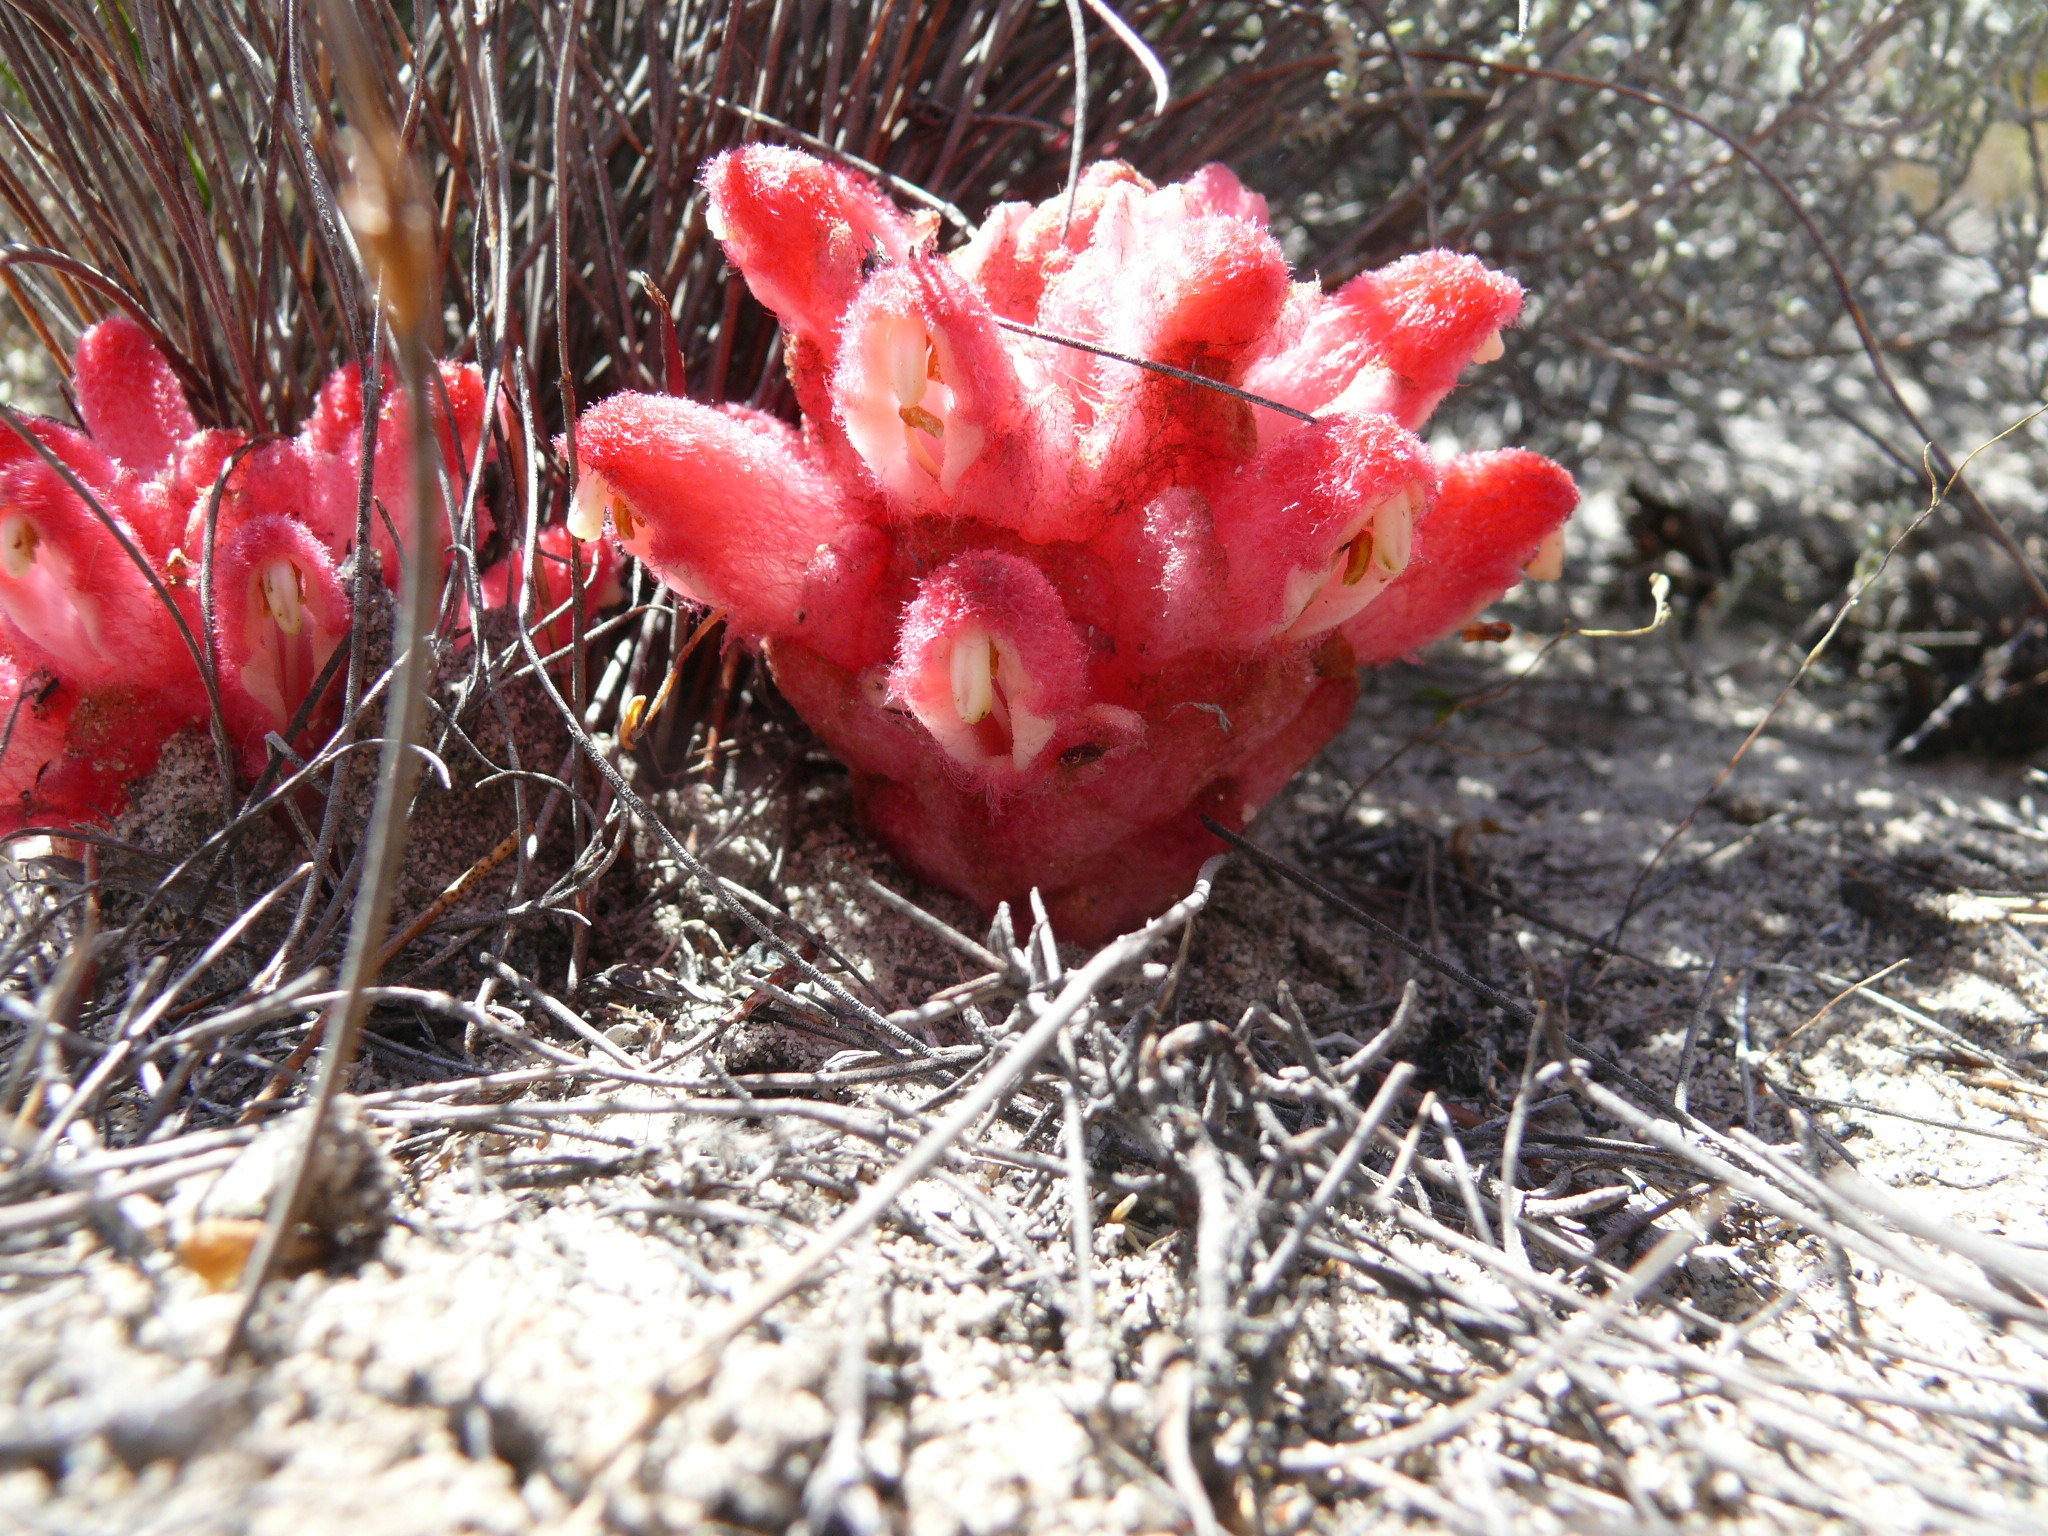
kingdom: Plantae
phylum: Tracheophyta
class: Magnoliopsida
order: Lamiales
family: Orobanchaceae
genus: Hyobanche
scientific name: Hyobanche sanguinea
